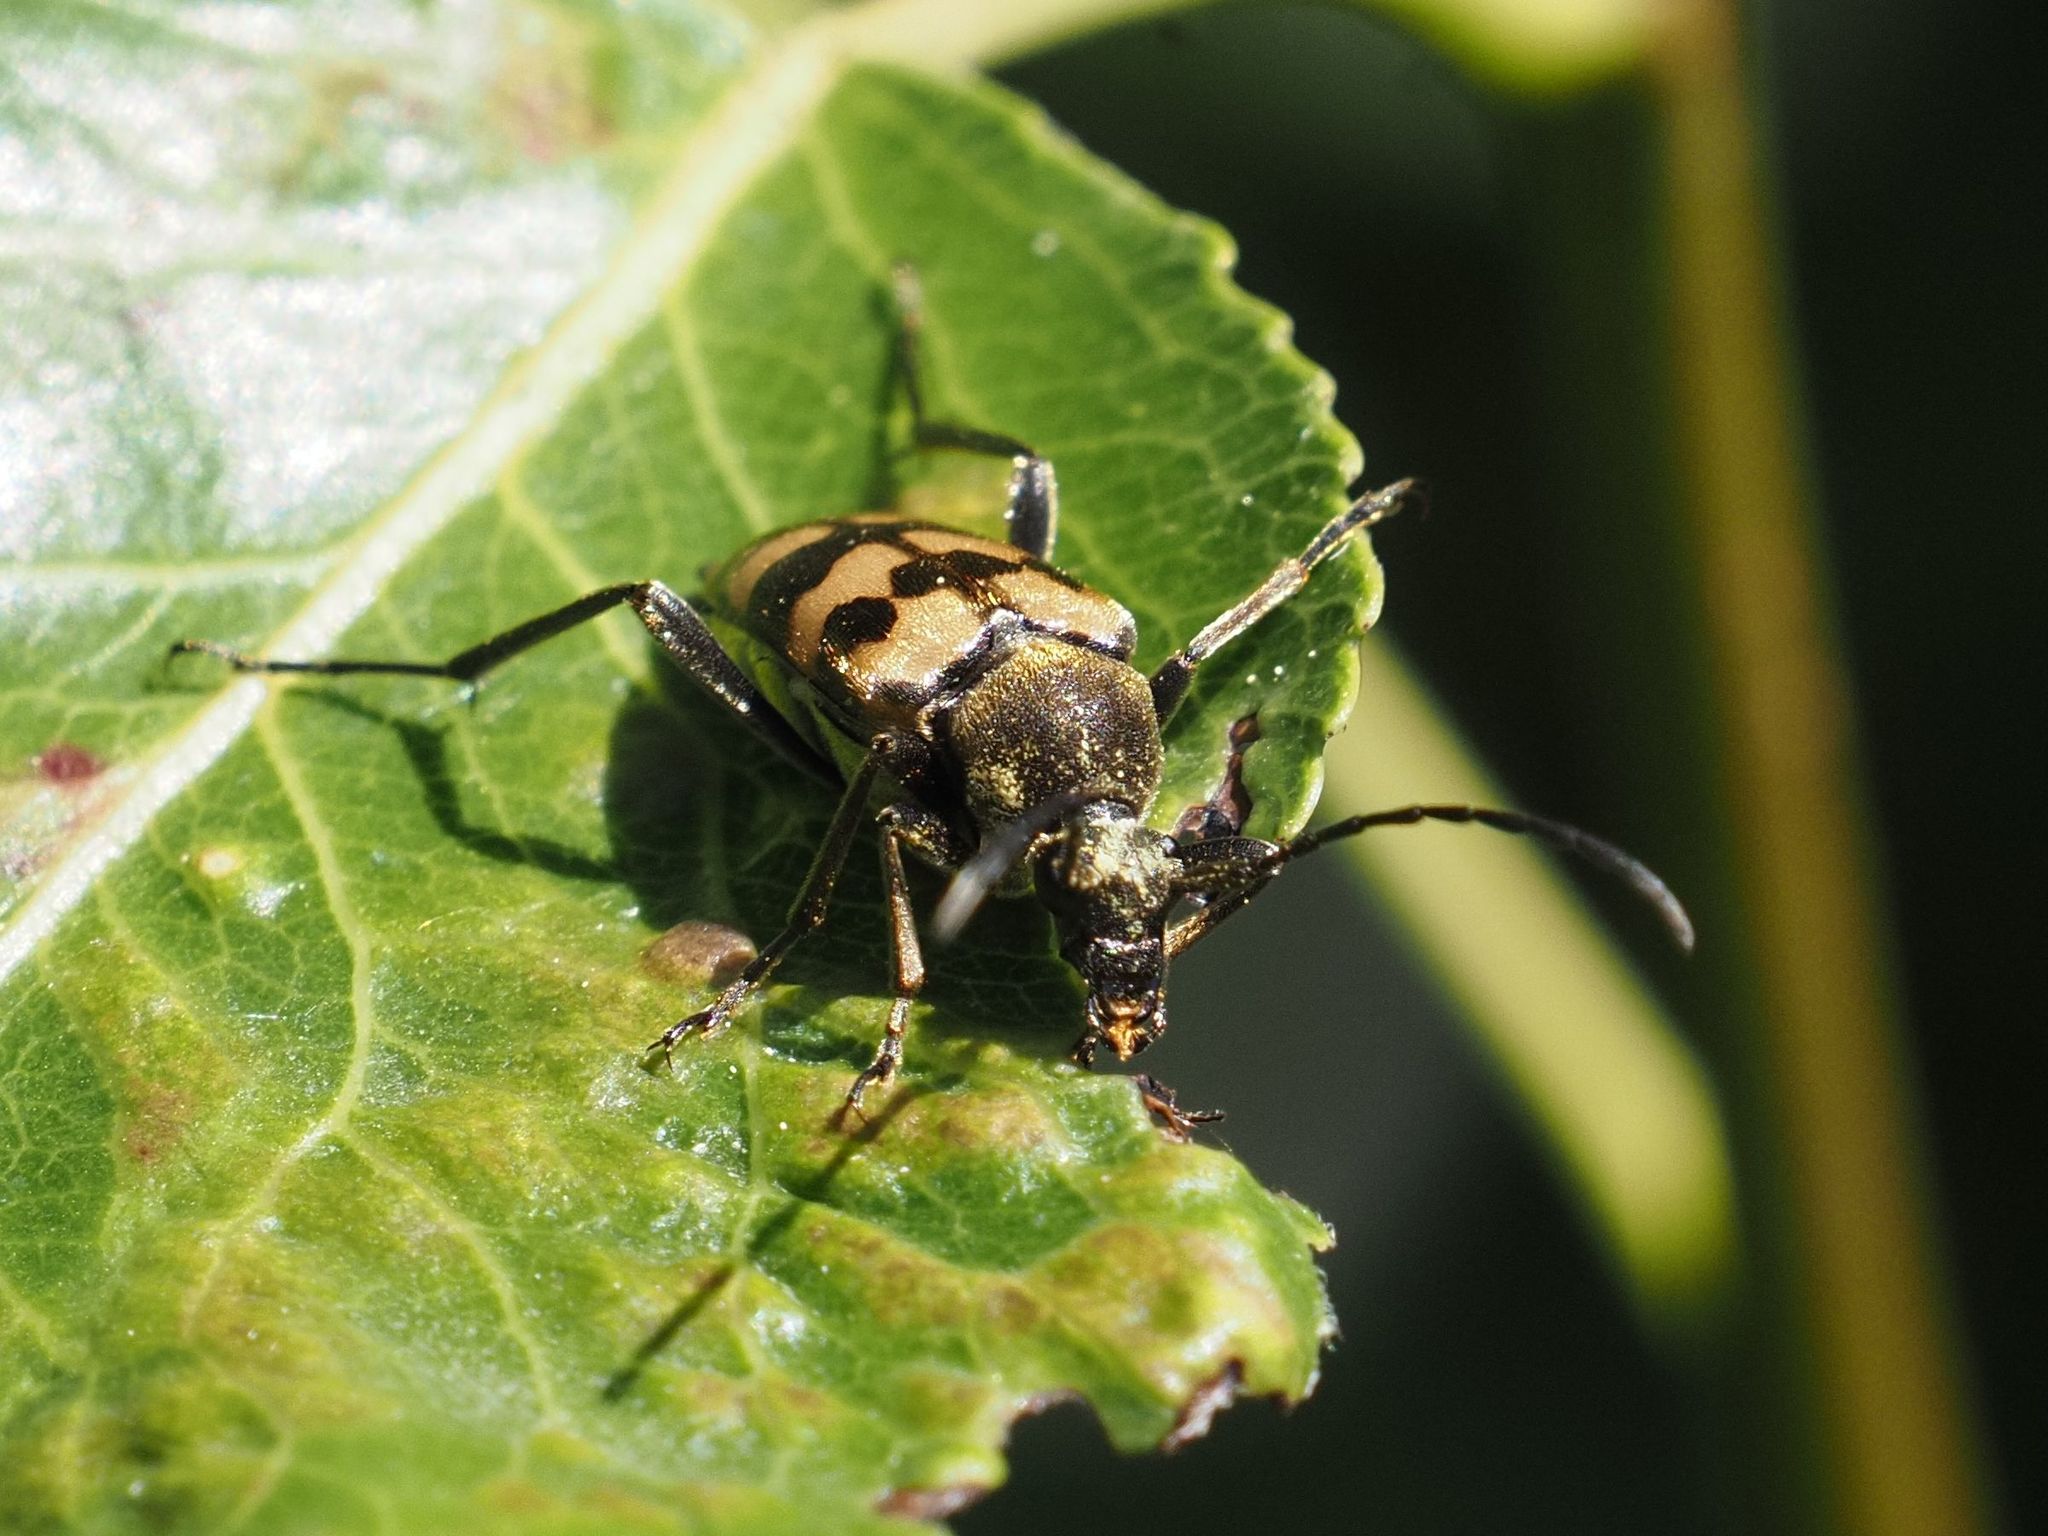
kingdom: Animalia
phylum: Arthropoda
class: Insecta
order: Coleoptera
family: Cerambycidae
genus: Pachytodes
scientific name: Pachytodes
